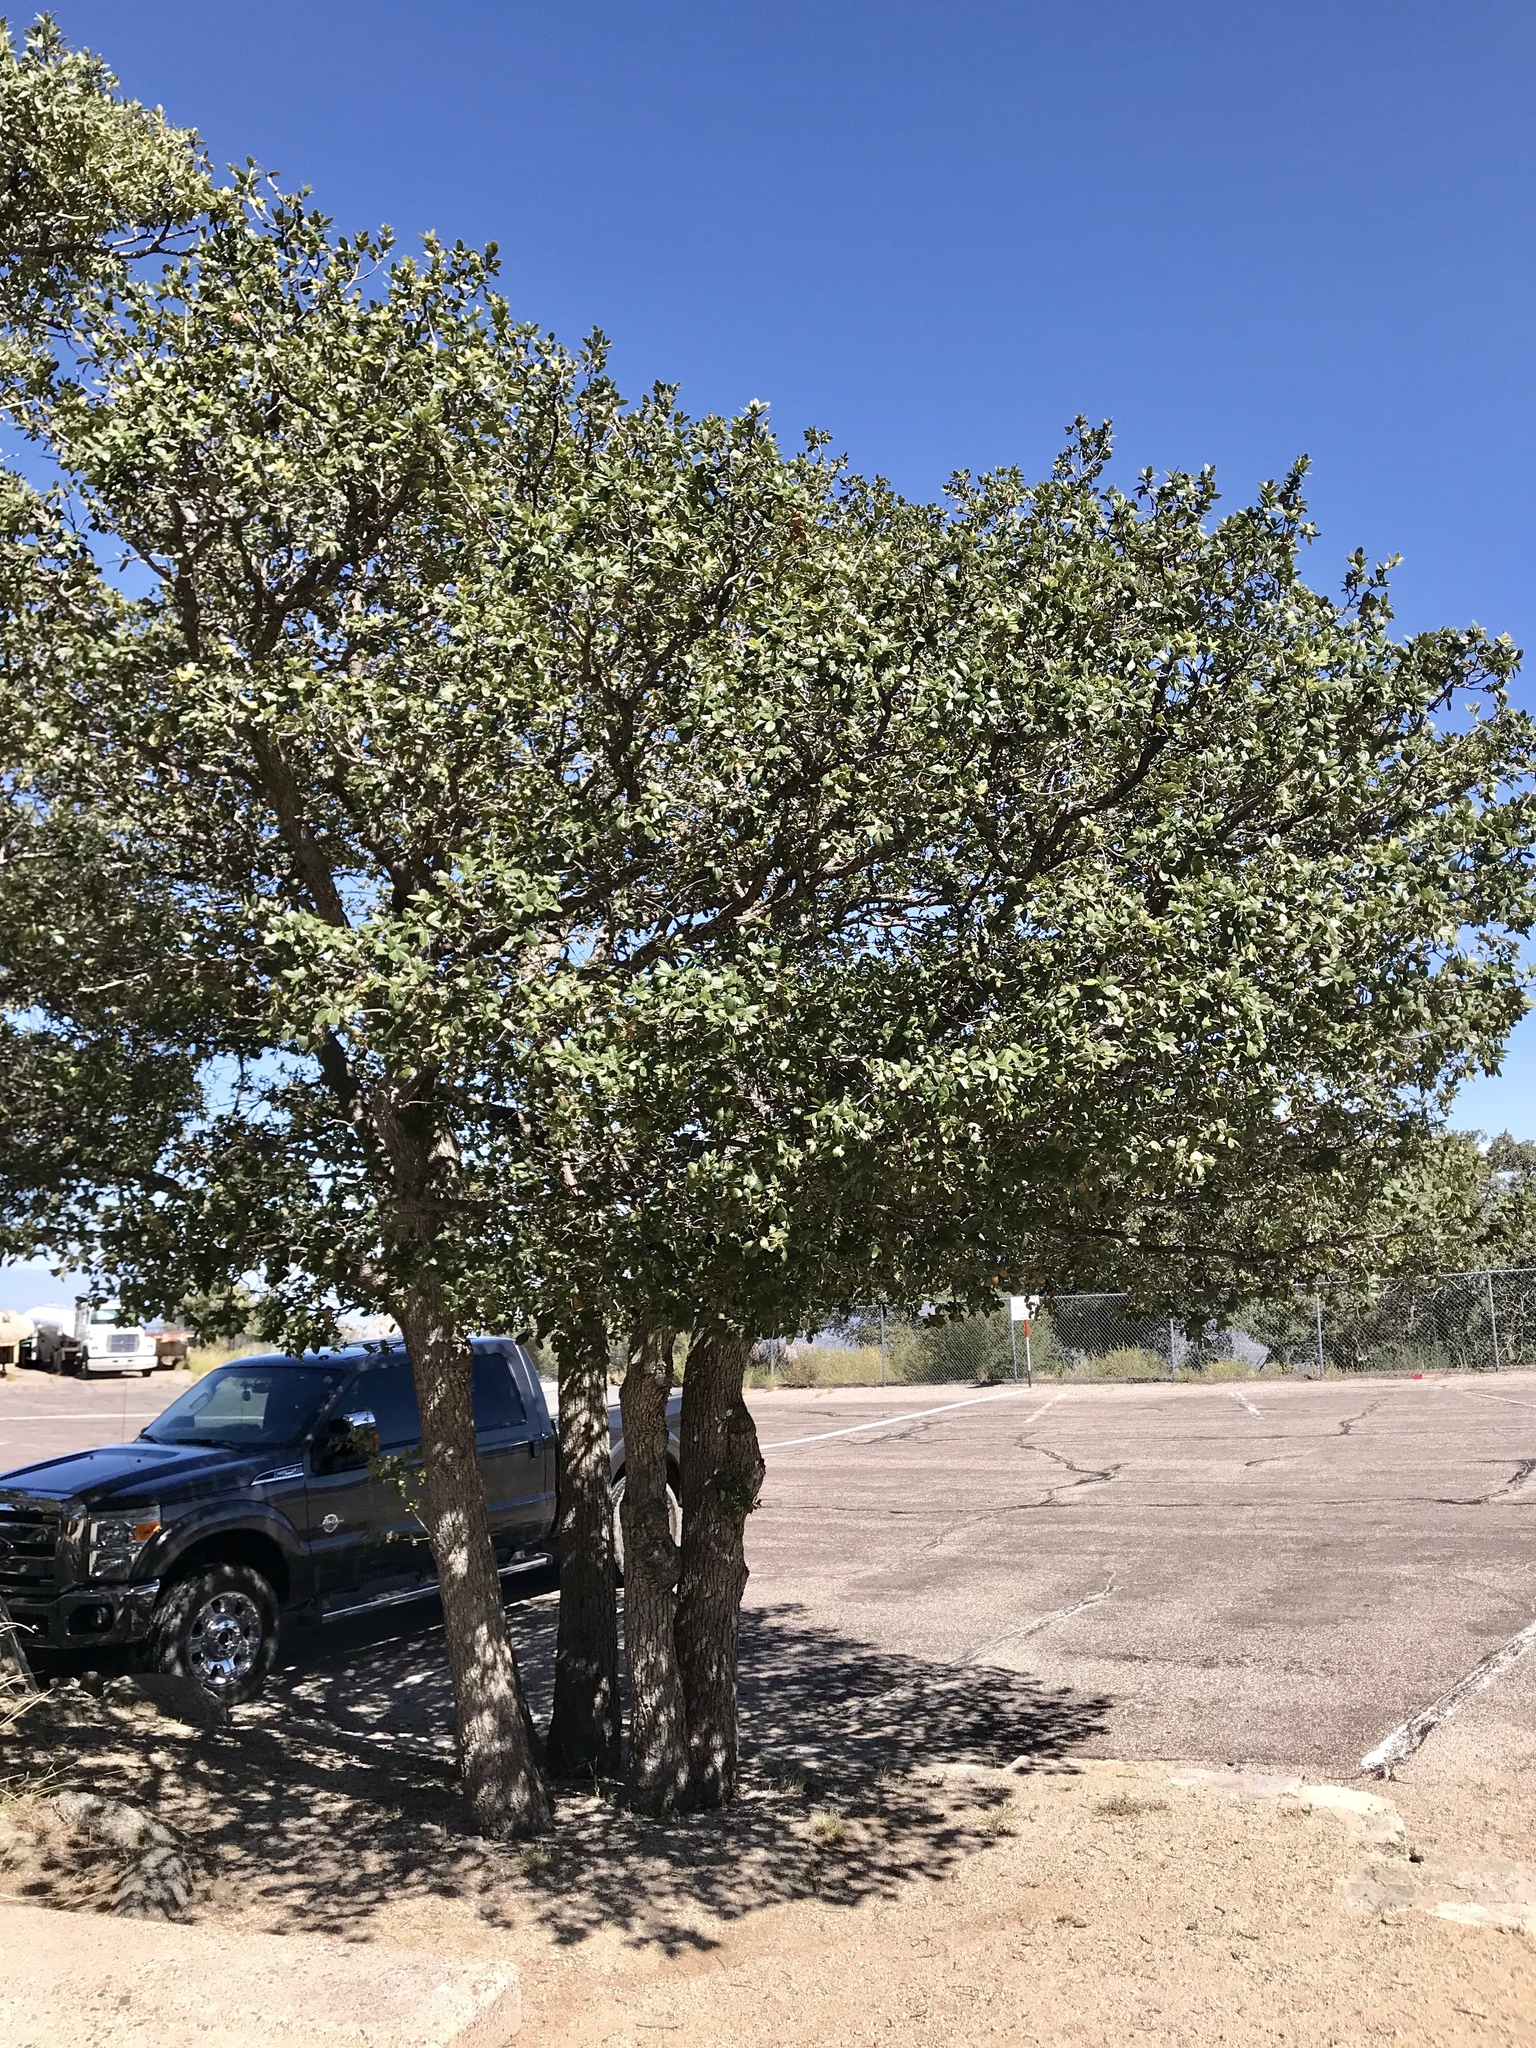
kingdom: Plantae
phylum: Tracheophyta
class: Magnoliopsida
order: Fagales
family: Fagaceae
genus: Quercus
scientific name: Quercus rugosa
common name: Netleaf oak
